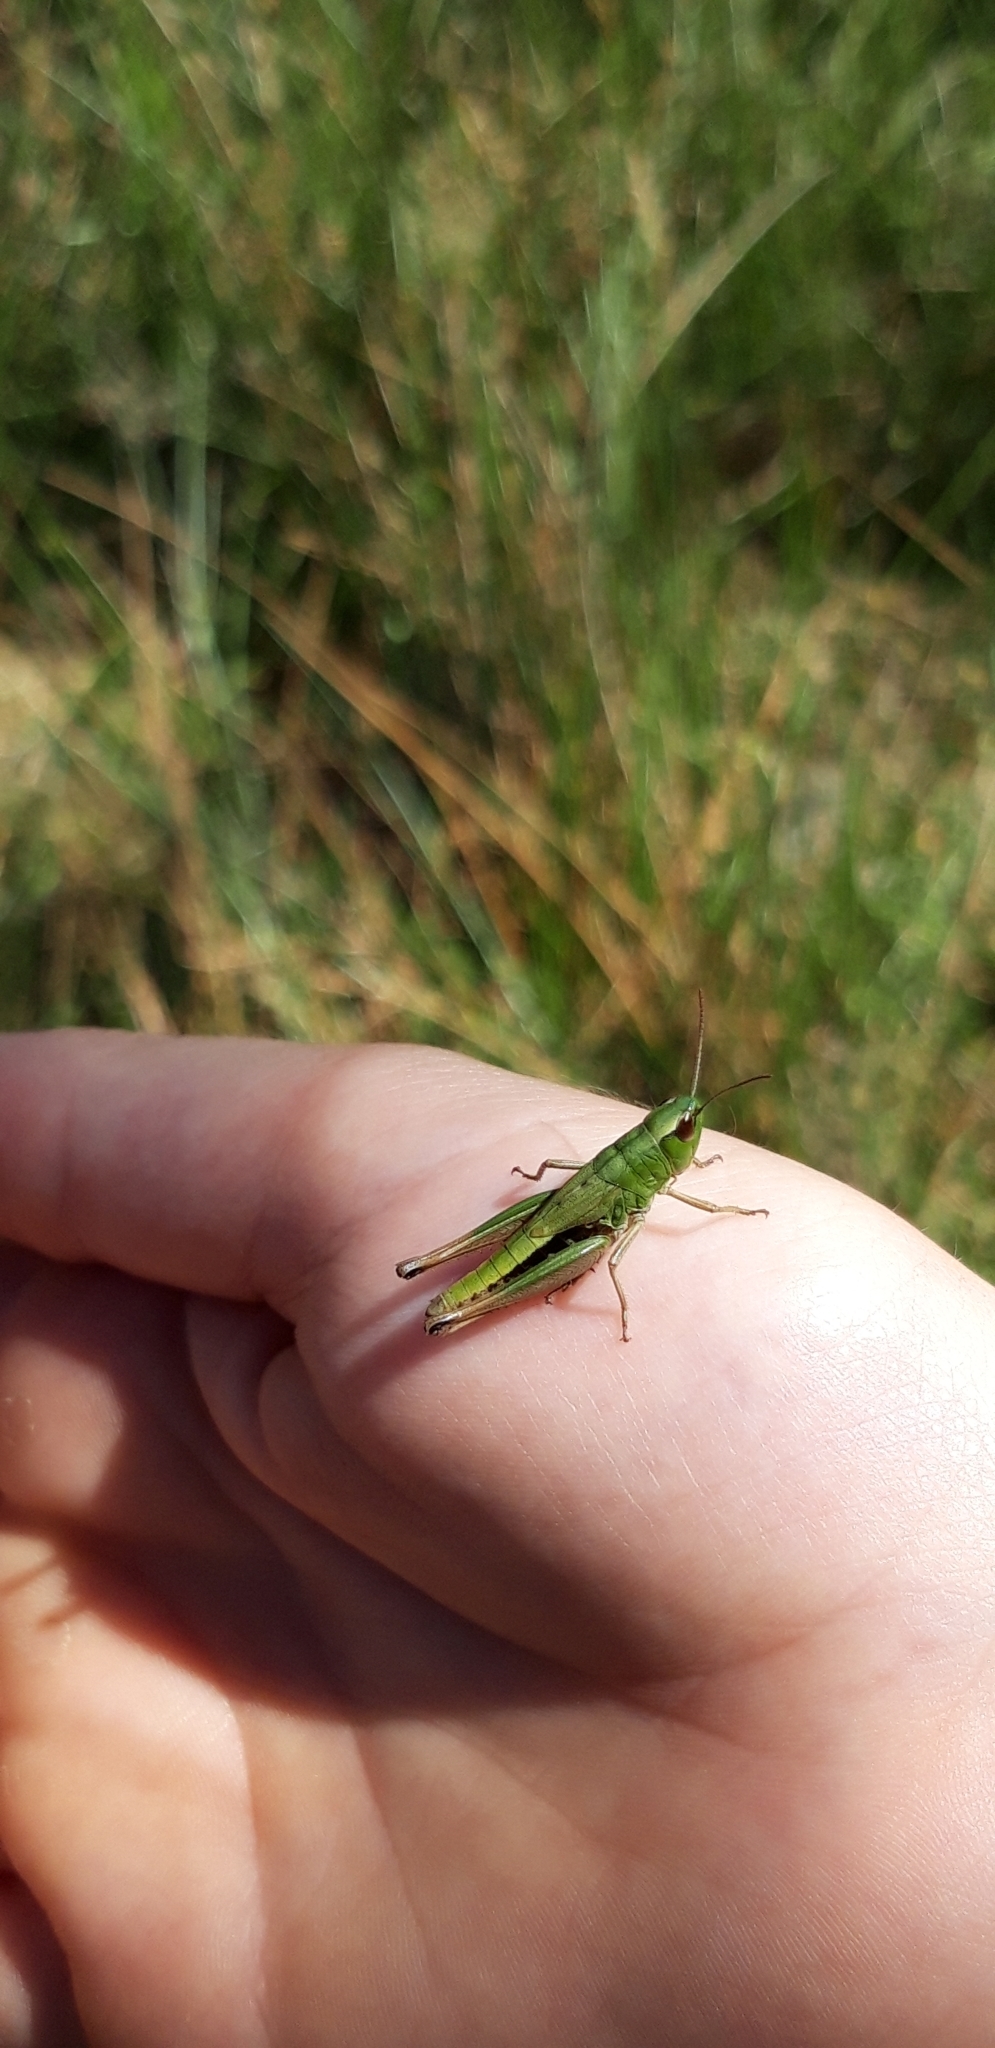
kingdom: Animalia
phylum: Arthropoda
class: Insecta
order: Orthoptera
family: Acrididae
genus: Pseudochorthippus
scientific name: Pseudochorthippus parallelus
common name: Meadow grasshopper
